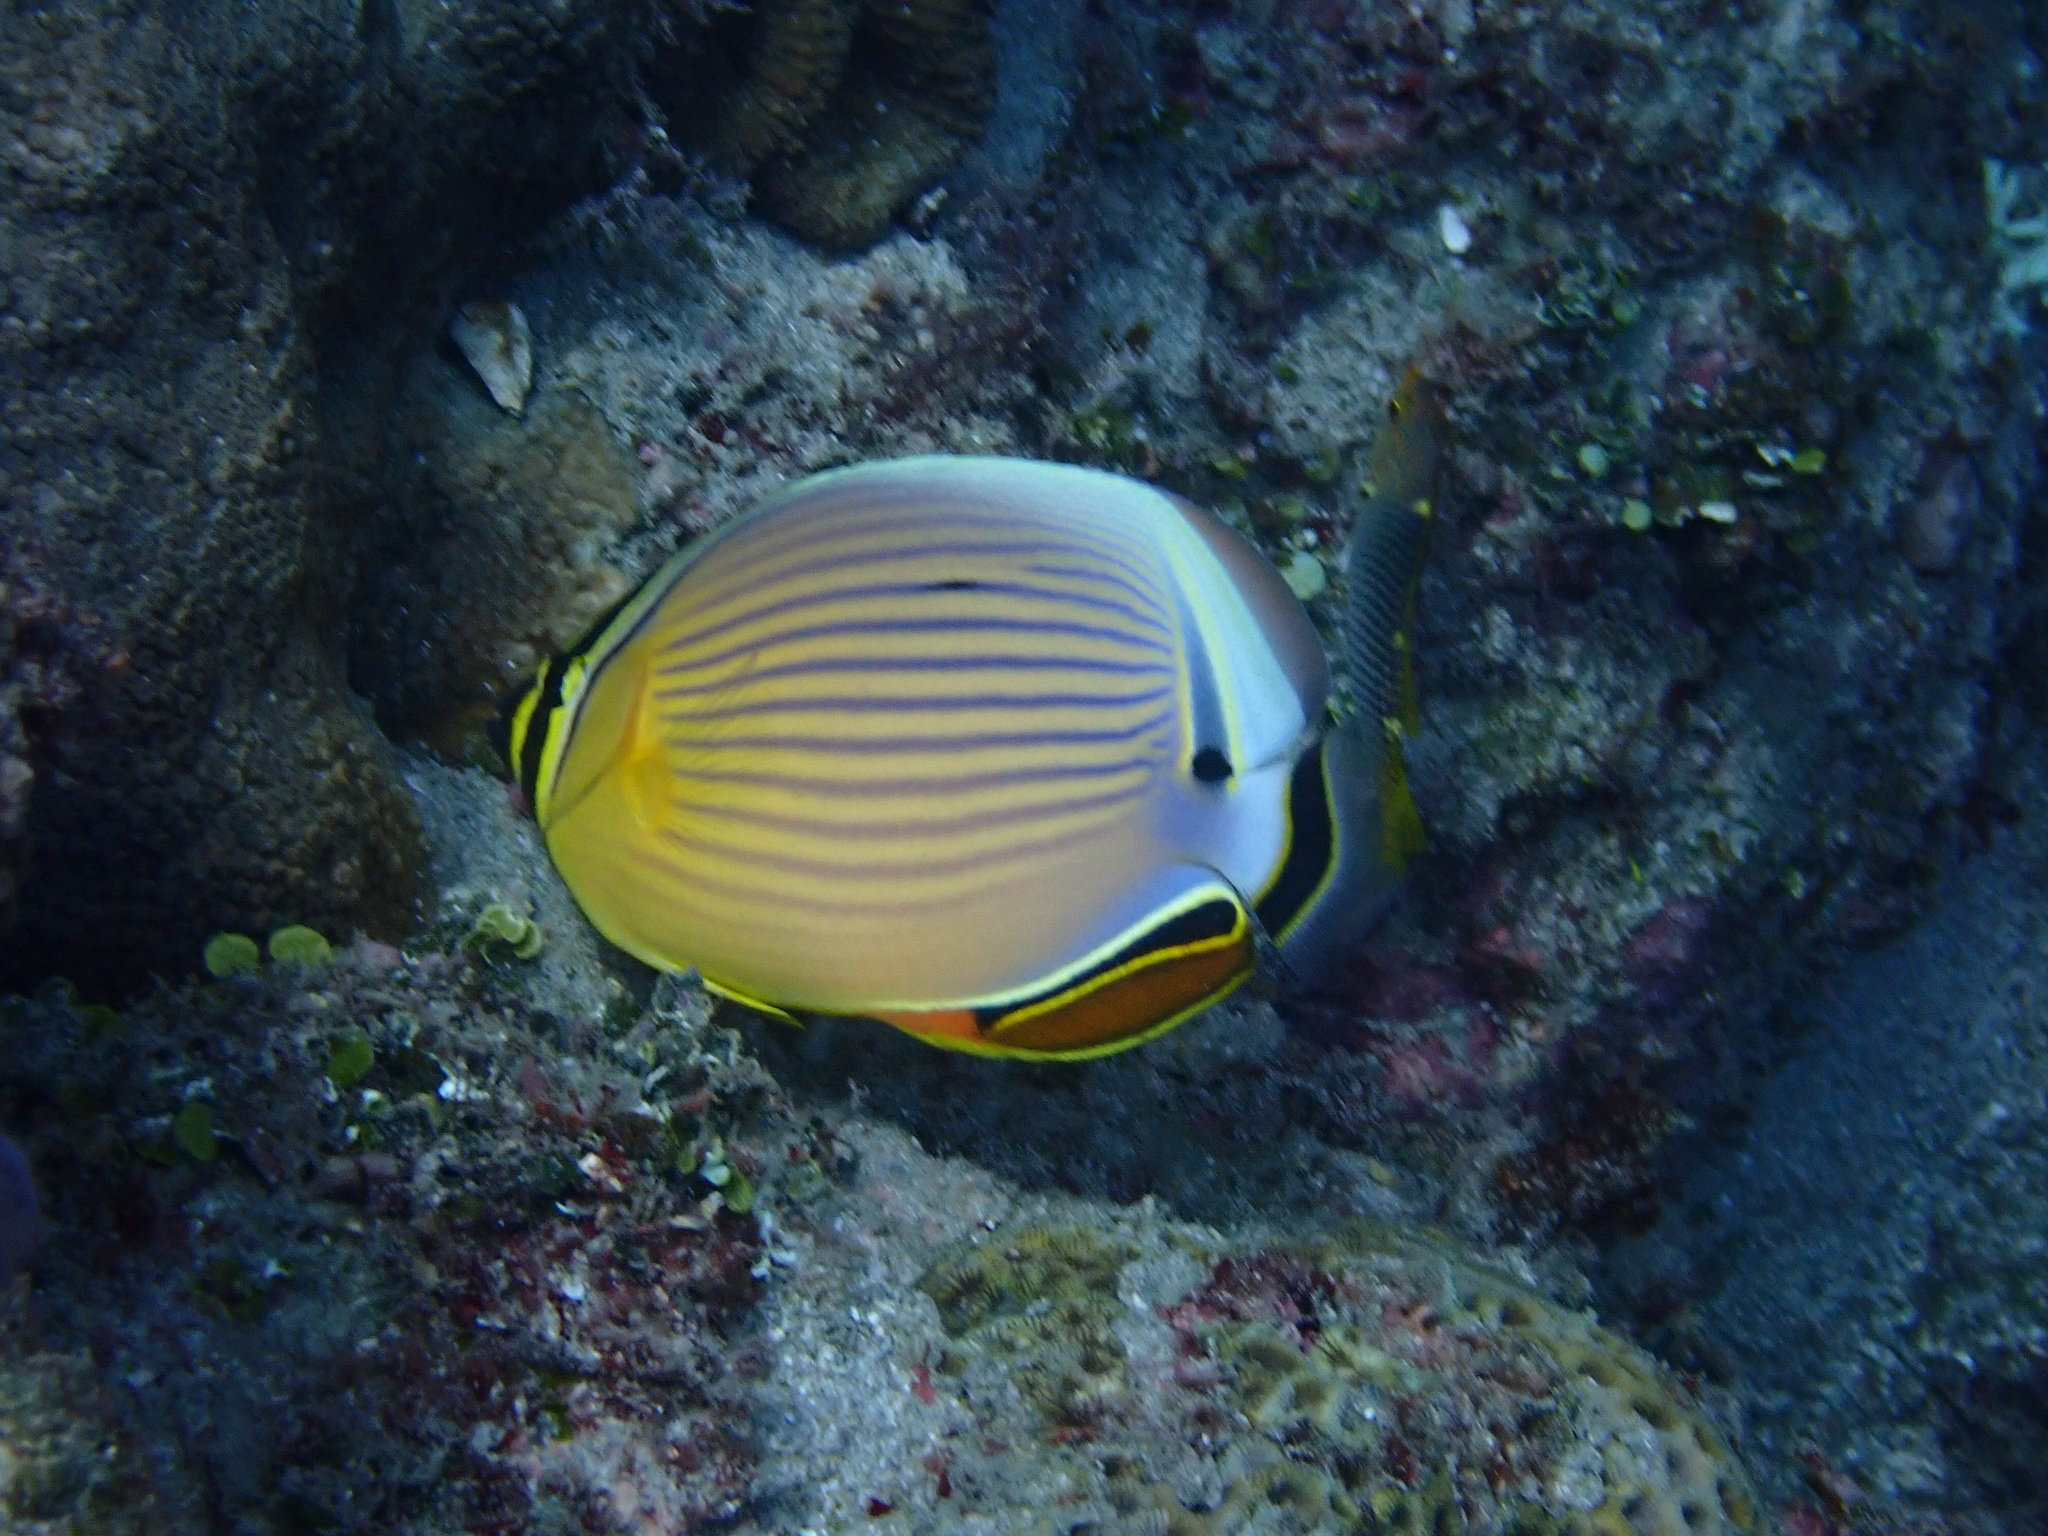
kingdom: Animalia
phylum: Chordata
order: Perciformes
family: Chaetodontidae
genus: Chaetodon
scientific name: Chaetodon lunulatus
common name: Redfin butterflyfish
